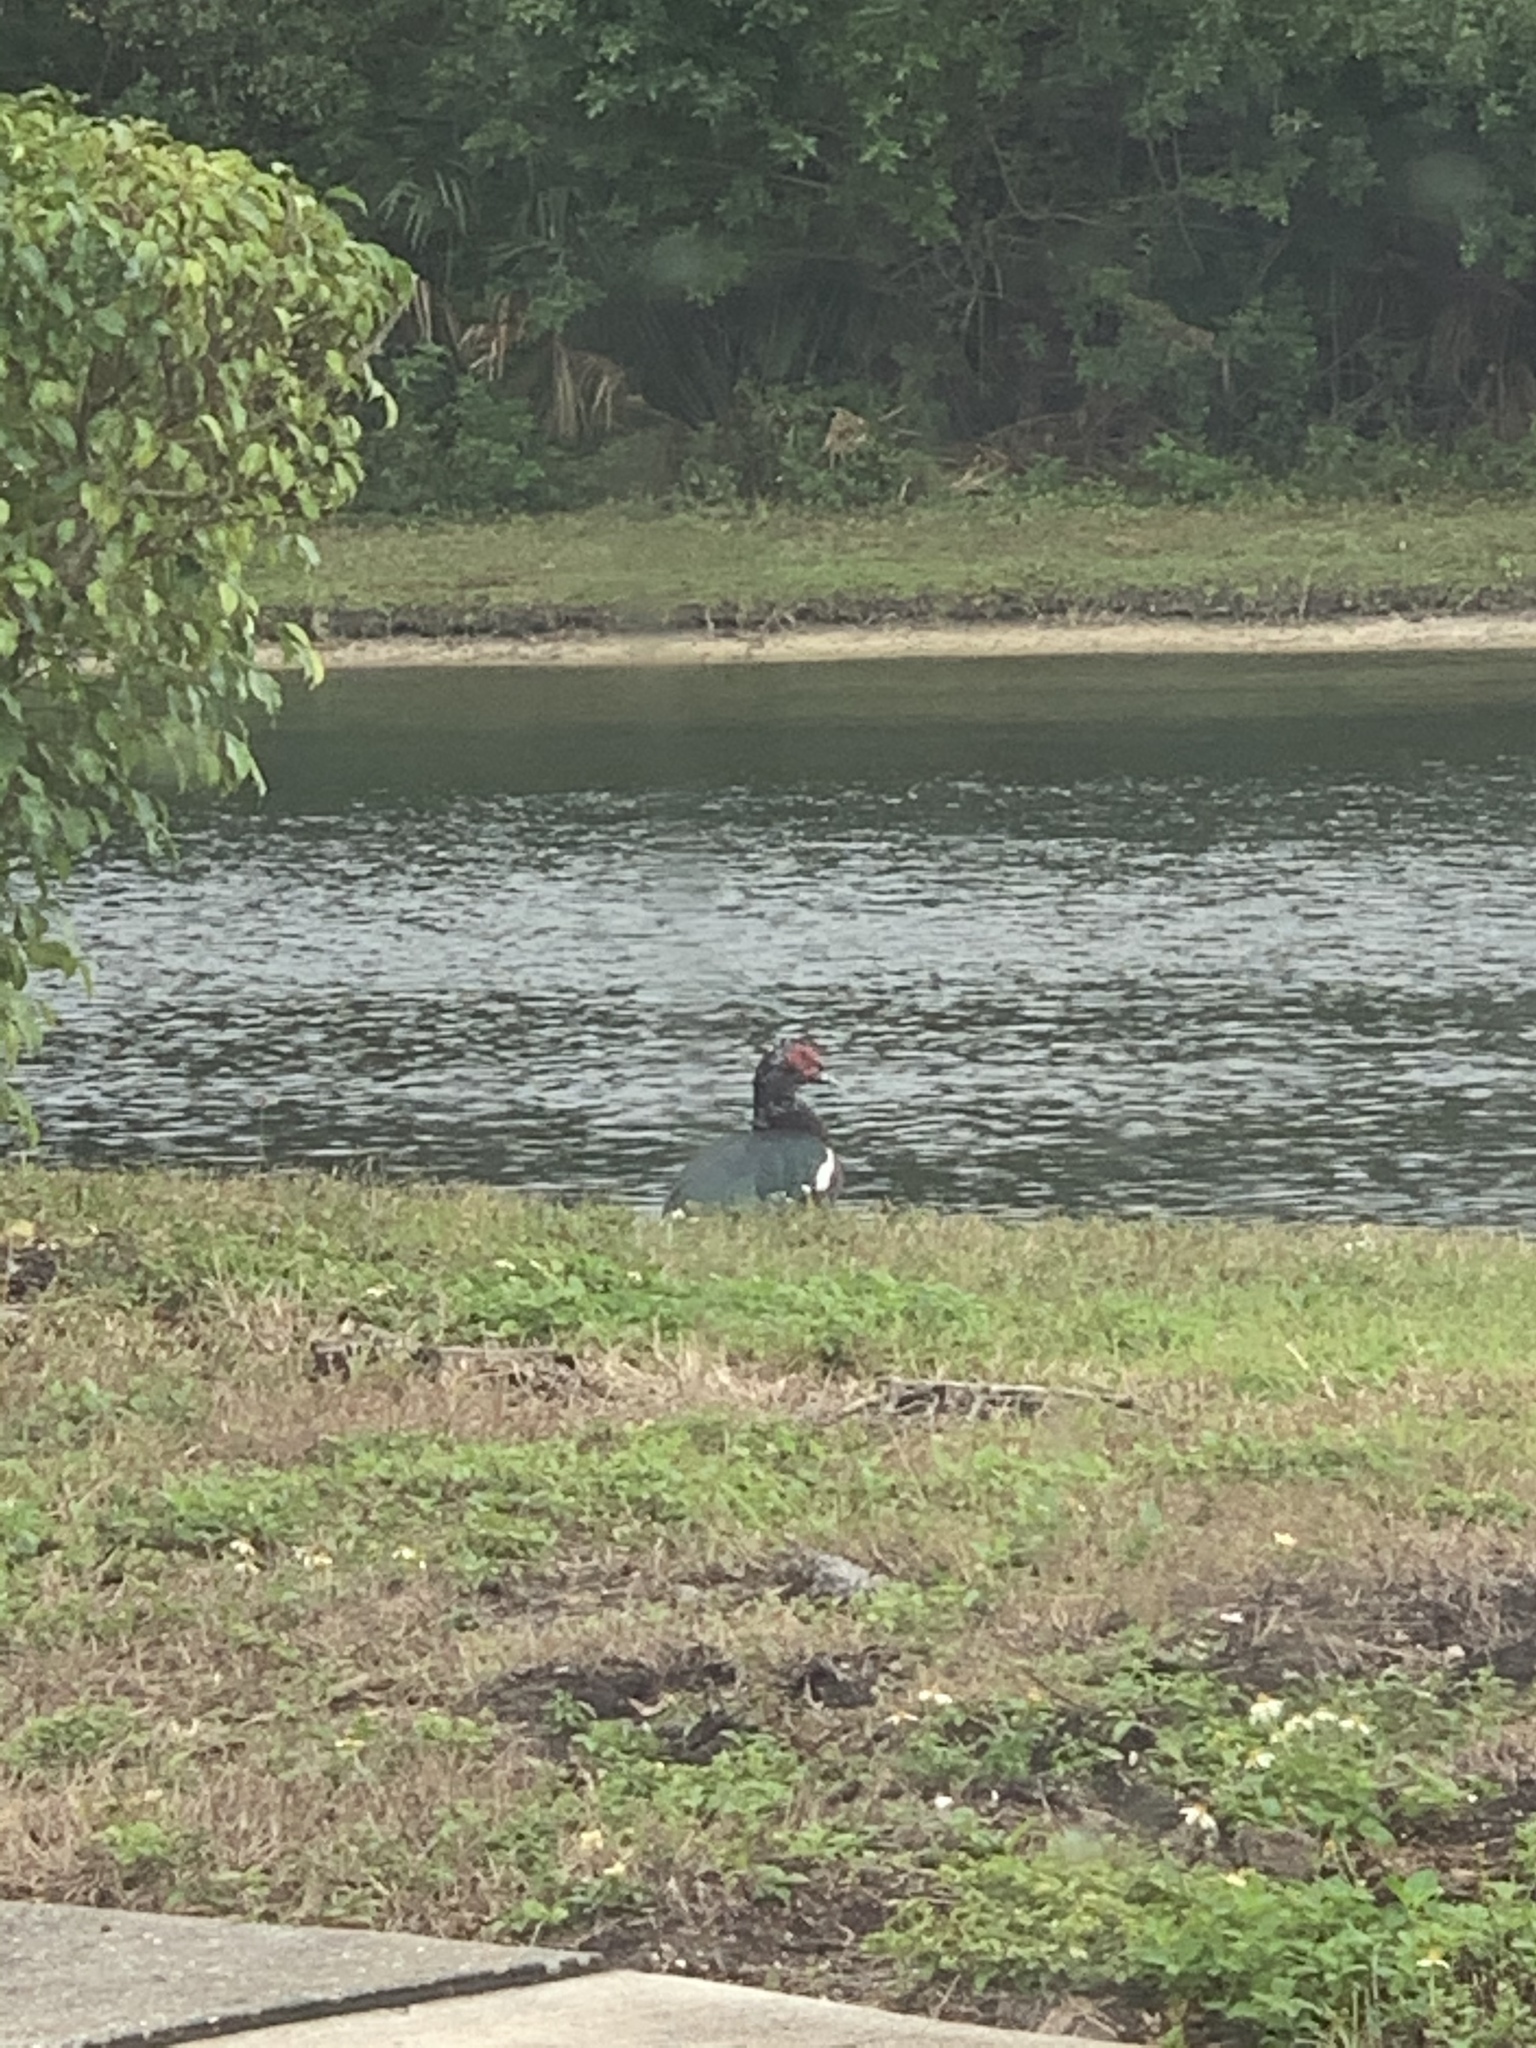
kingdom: Animalia
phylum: Chordata
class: Aves
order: Anseriformes
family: Anatidae
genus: Cairina
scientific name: Cairina moschata
